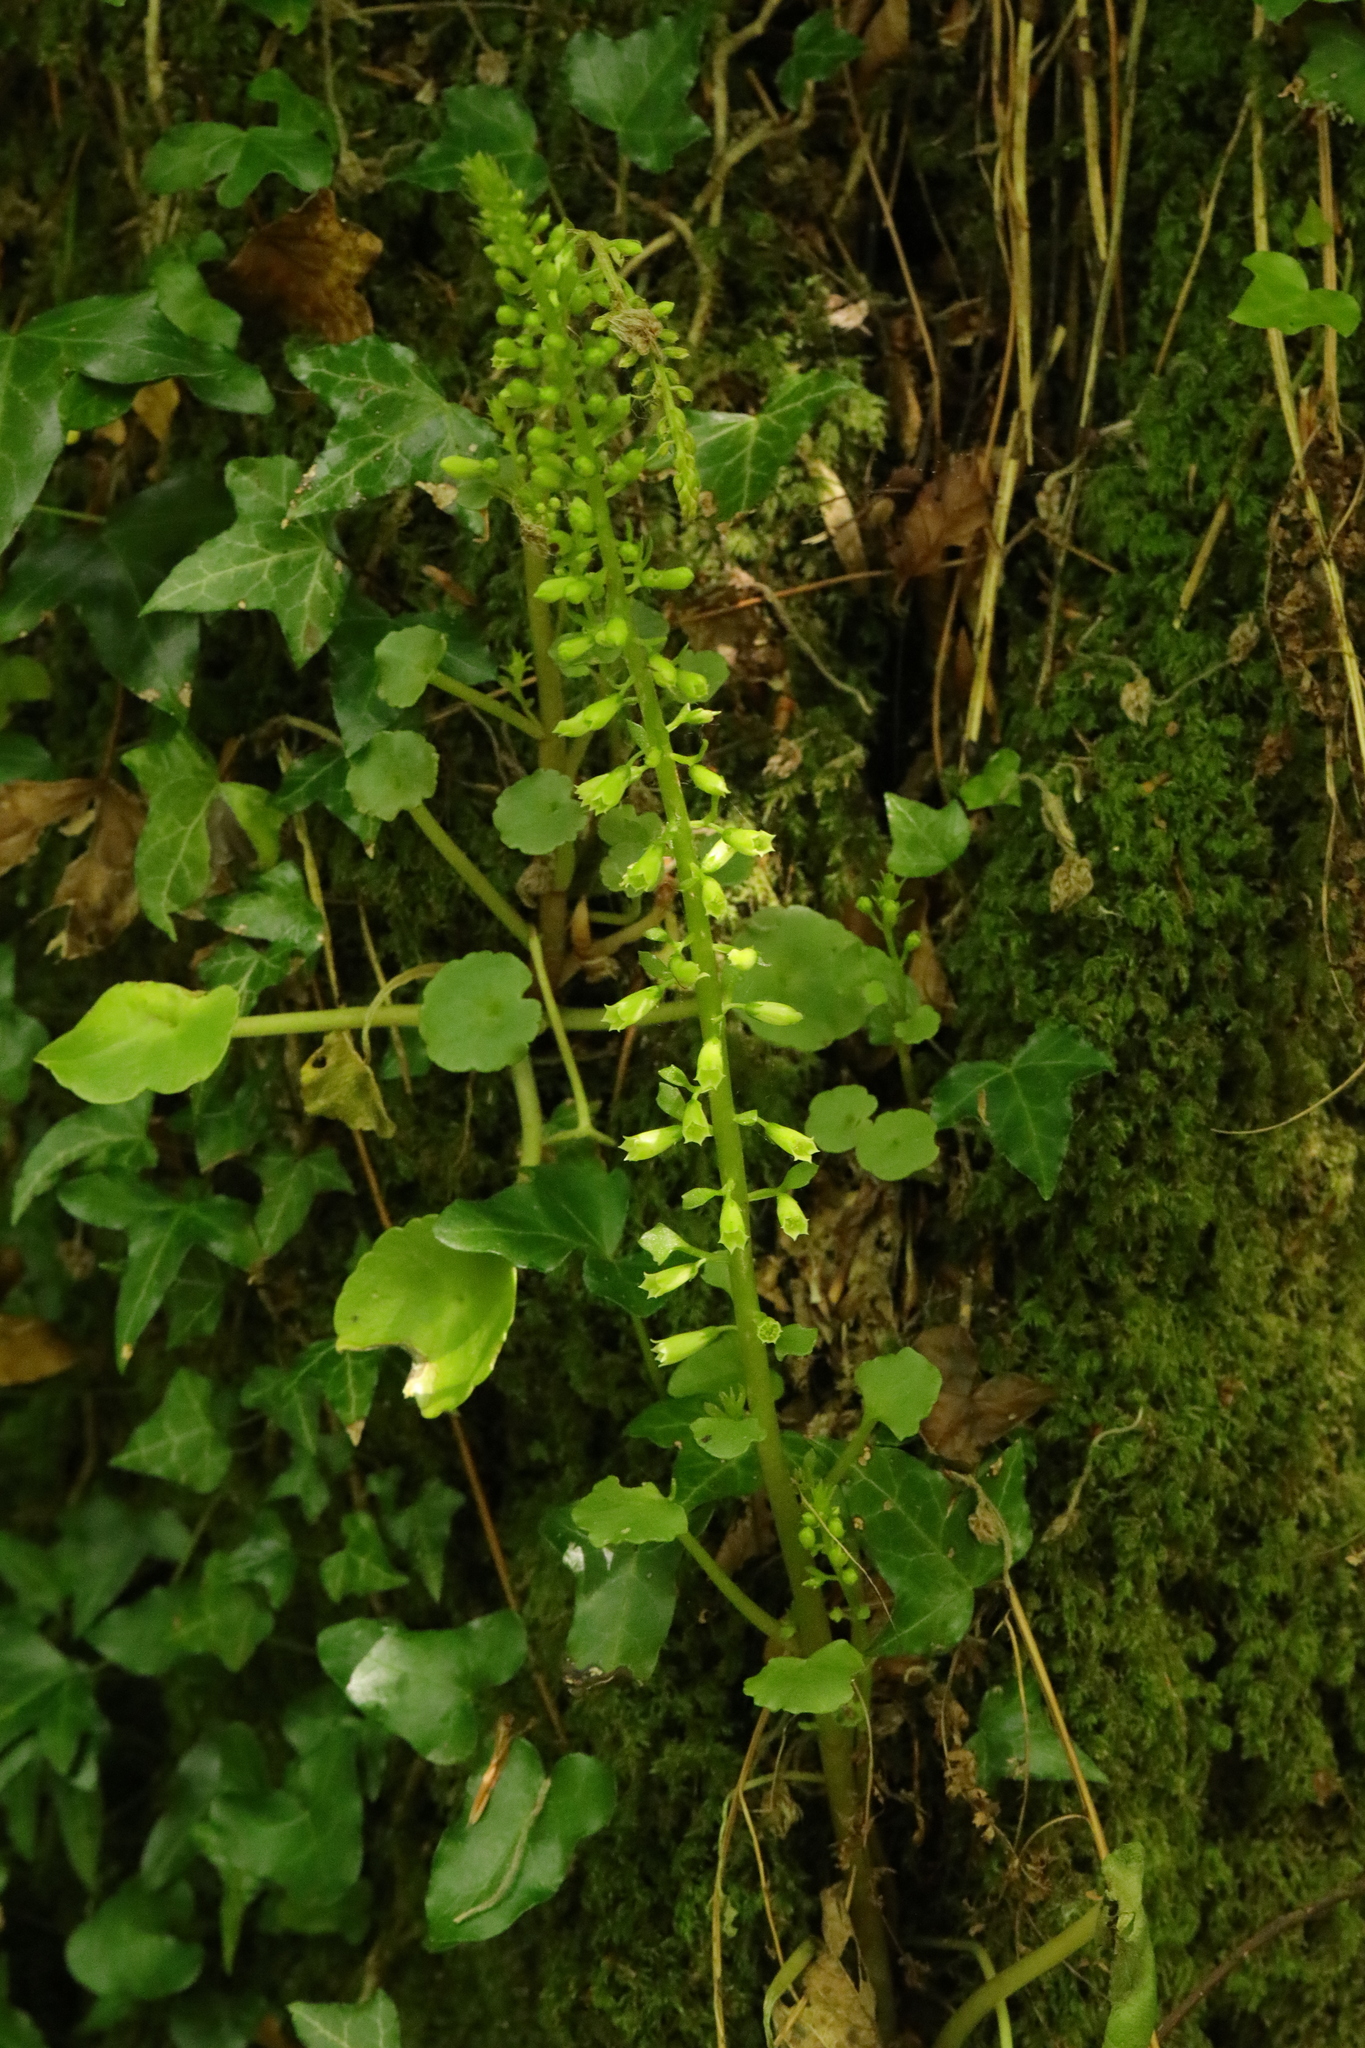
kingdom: Plantae
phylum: Tracheophyta
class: Magnoliopsida
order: Saxifragales
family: Crassulaceae
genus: Umbilicus
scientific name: Umbilicus rupestris
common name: Navelwort
